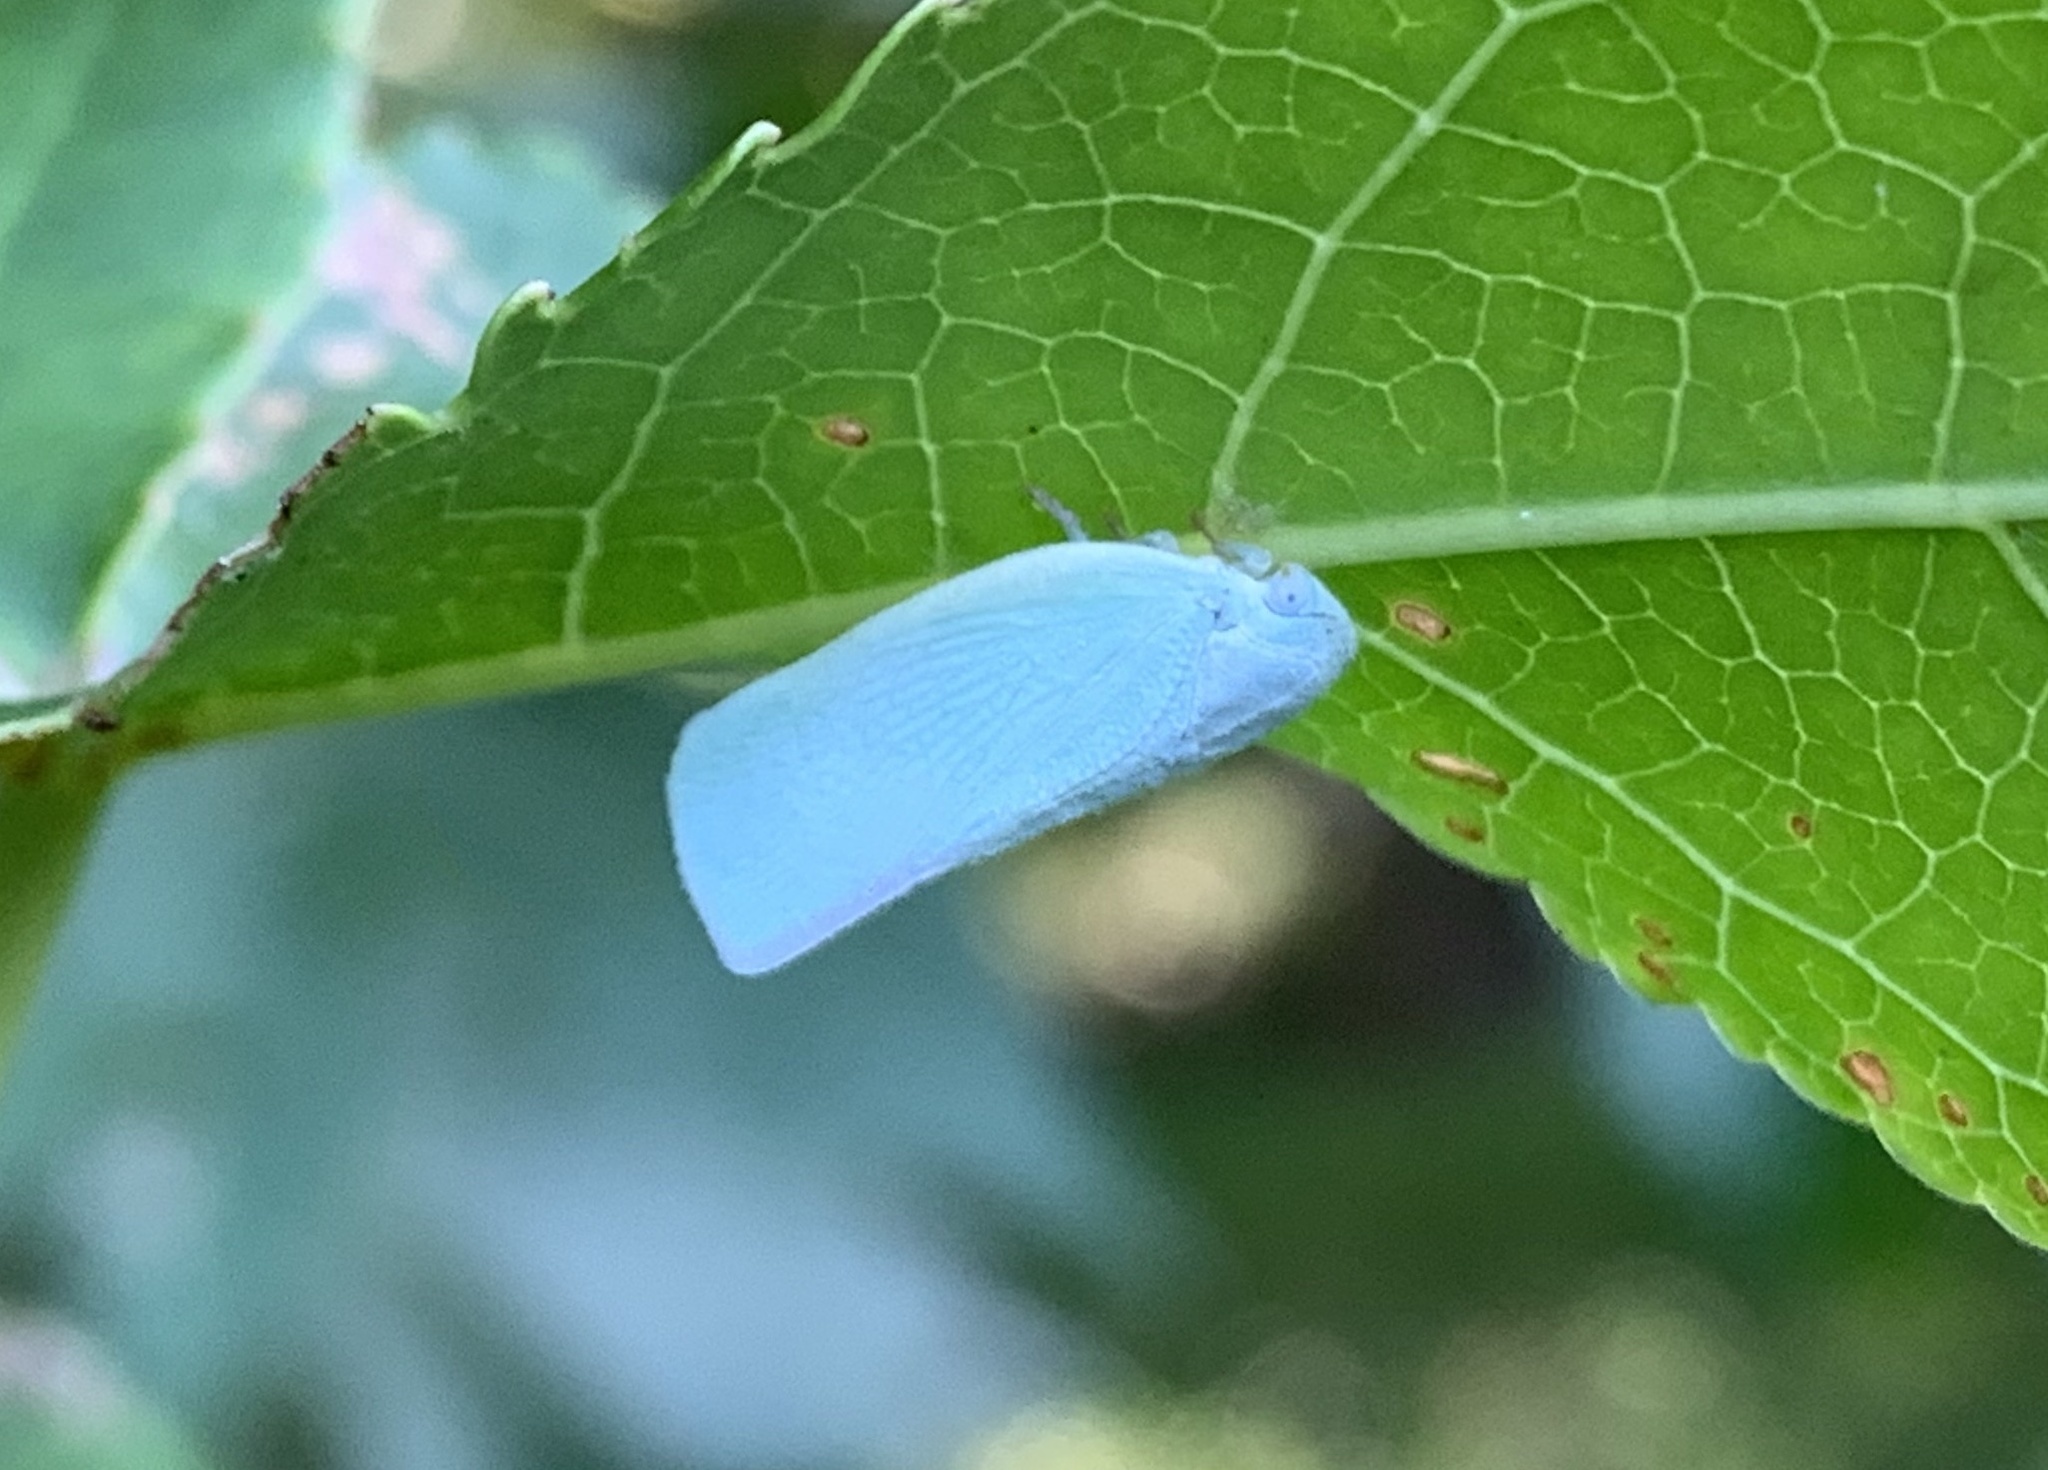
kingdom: Animalia
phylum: Arthropoda
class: Insecta
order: Hemiptera
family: Flatidae
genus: Flatormenis
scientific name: Flatormenis proxima
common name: Northern flatid planthopper
